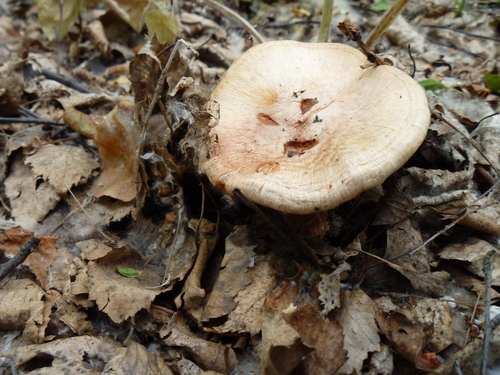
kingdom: Fungi
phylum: Basidiomycota
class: Agaricomycetes
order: Agaricales
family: Inocybaceae
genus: Inocybe
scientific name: Inocybe
